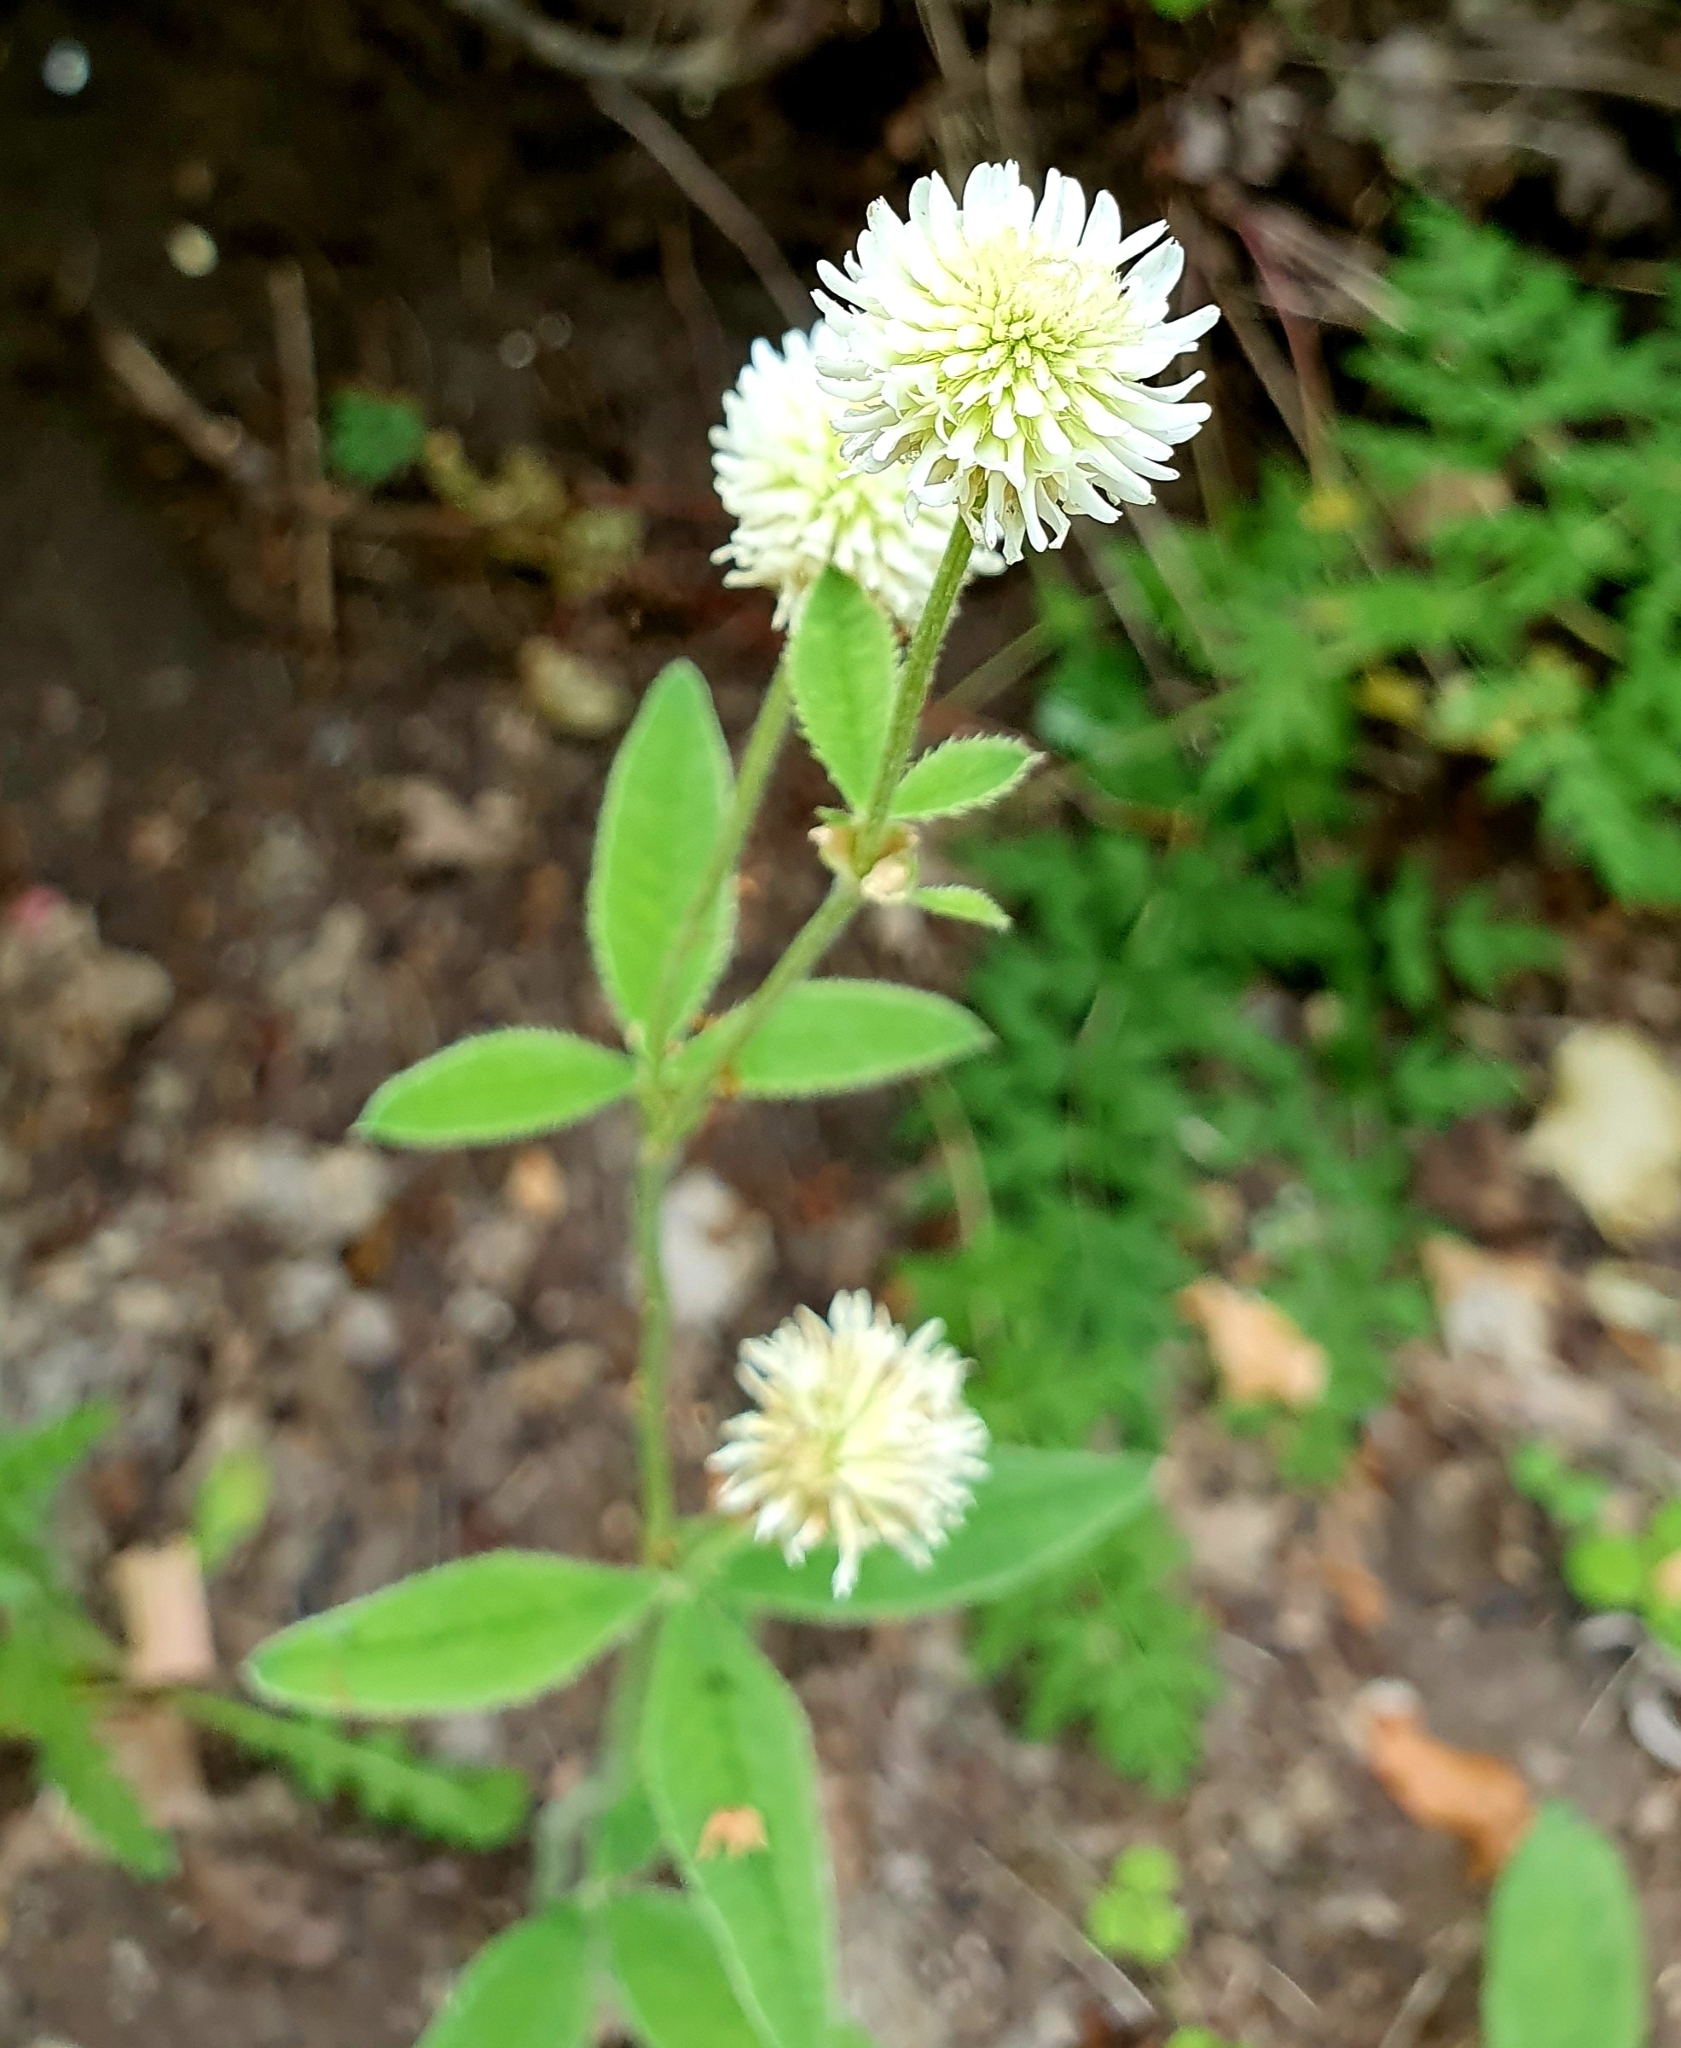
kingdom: Plantae
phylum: Tracheophyta
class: Magnoliopsida
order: Fabales
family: Fabaceae
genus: Trifolium
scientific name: Trifolium montanum
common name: Mountain clover
